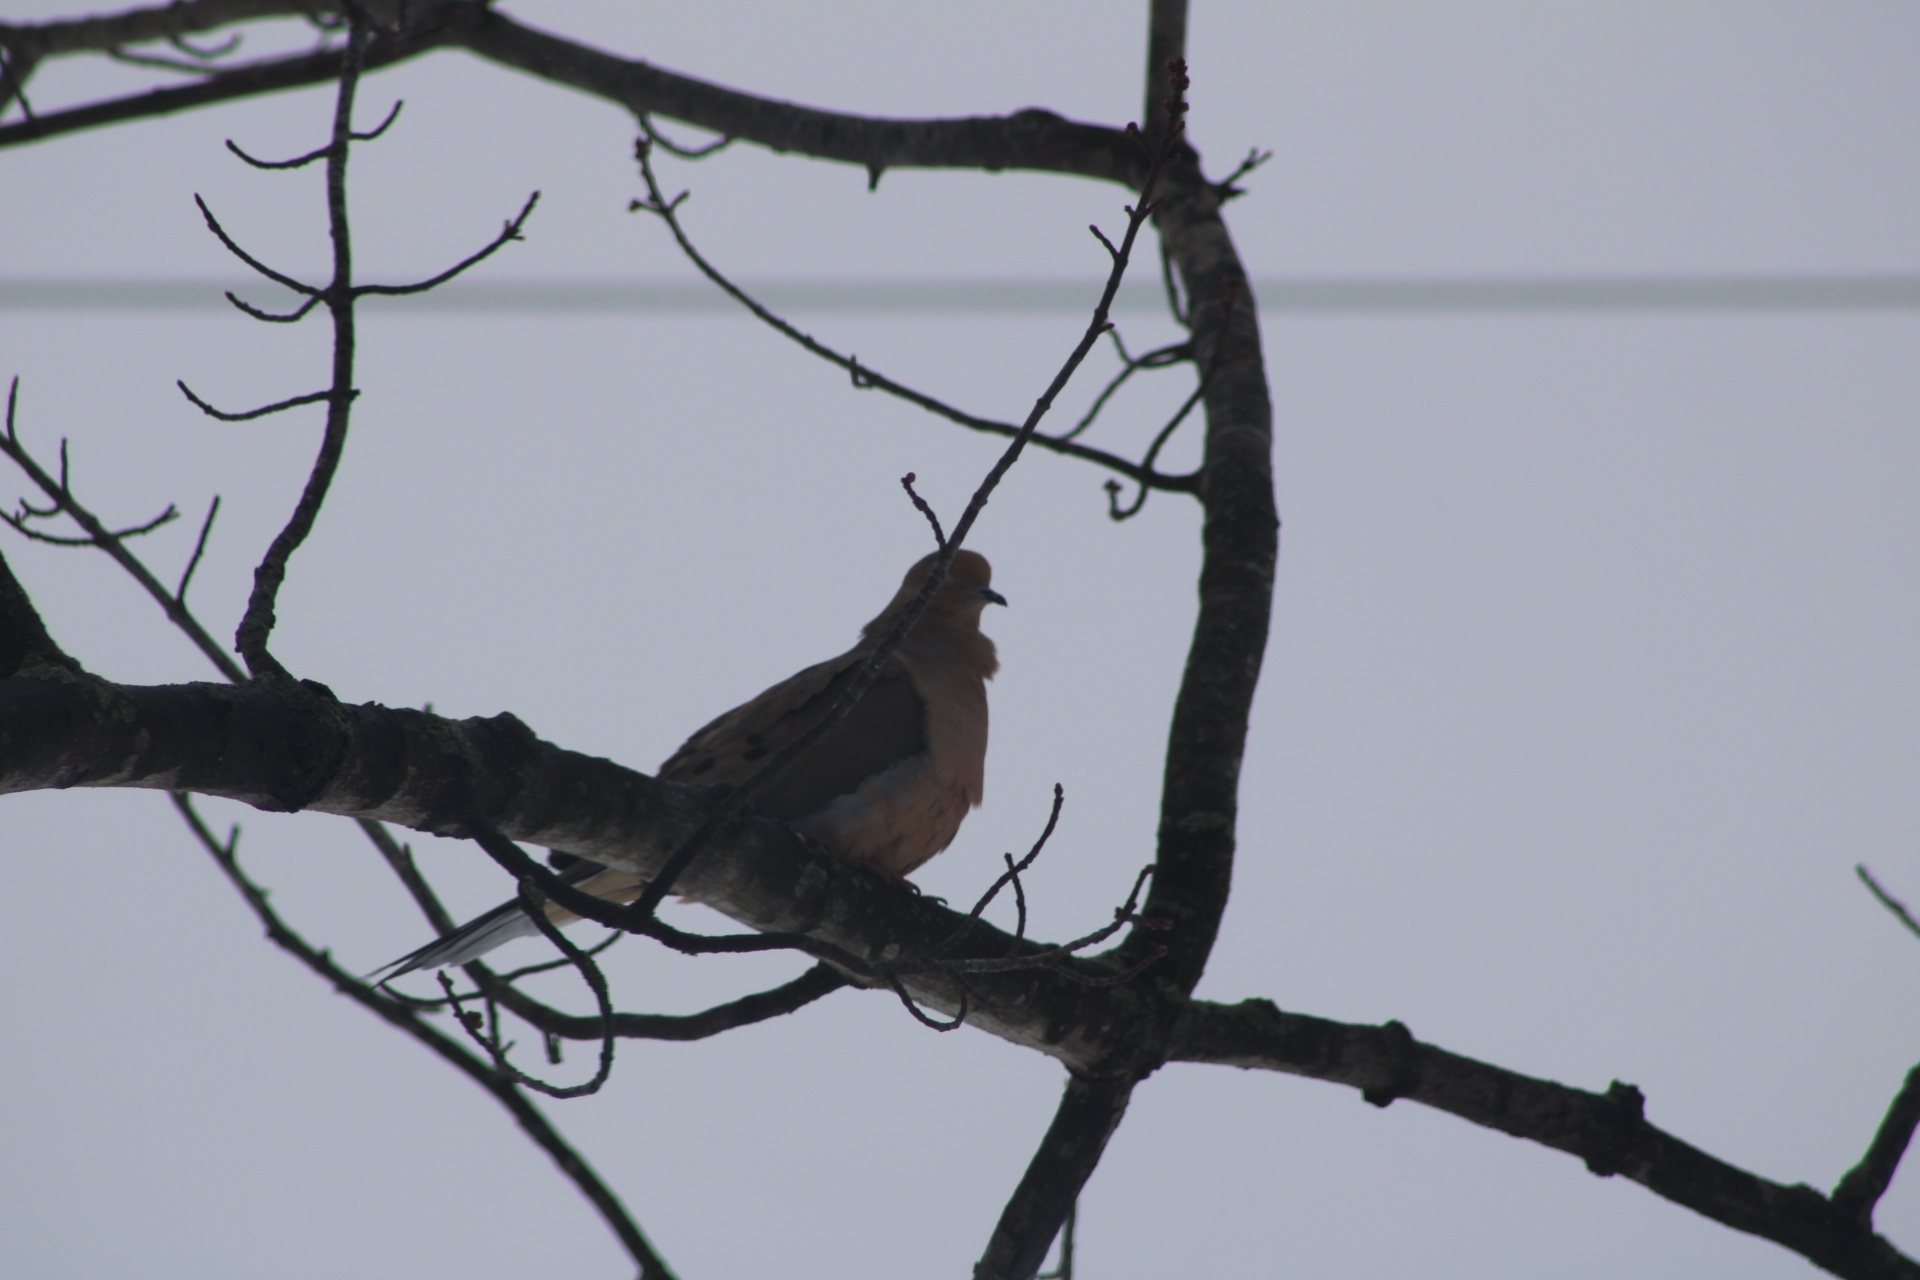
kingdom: Animalia
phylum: Chordata
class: Aves
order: Columbiformes
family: Columbidae
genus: Zenaida
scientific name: Zenaida macroura
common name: Mourning dove
